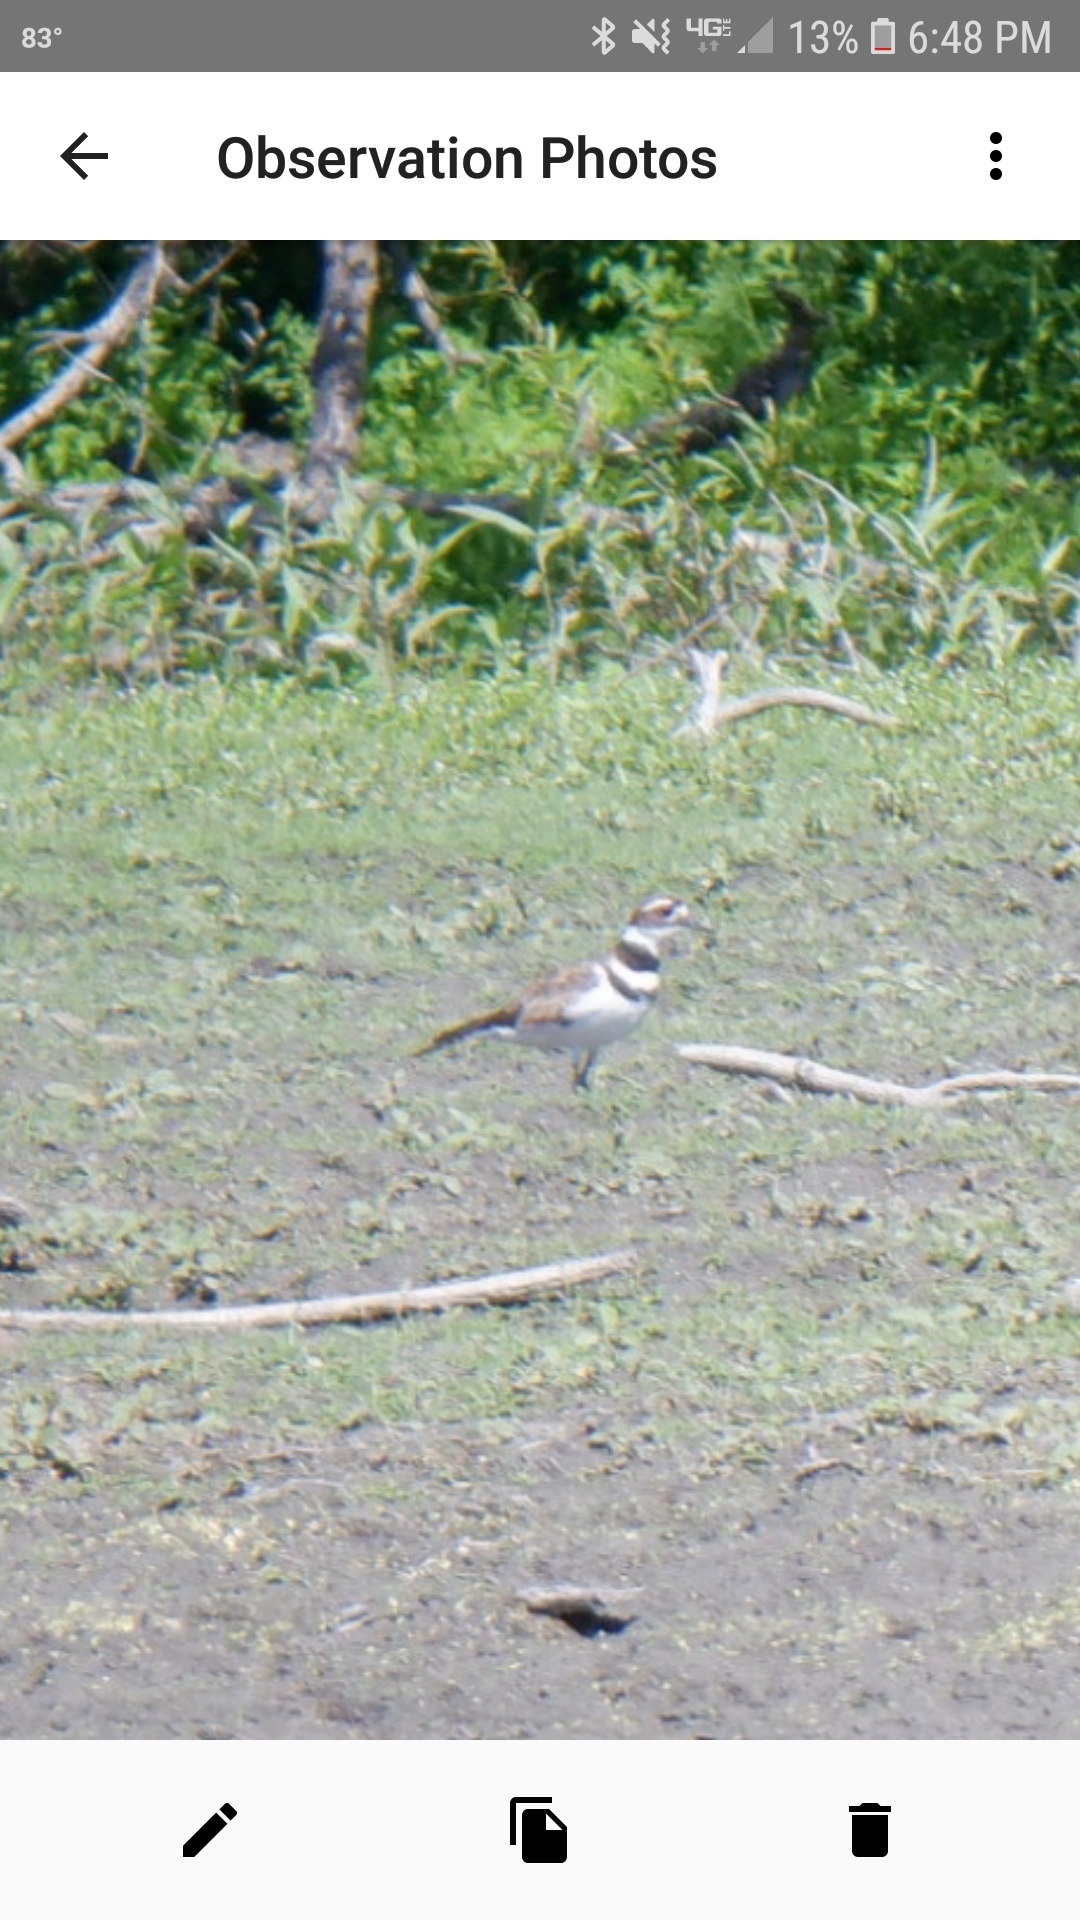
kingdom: Animalia
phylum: Chordata
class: Aves
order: Charadriiformes
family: Charadriidae
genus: Charadrius
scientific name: Charadrius vociferus
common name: Killdeer
